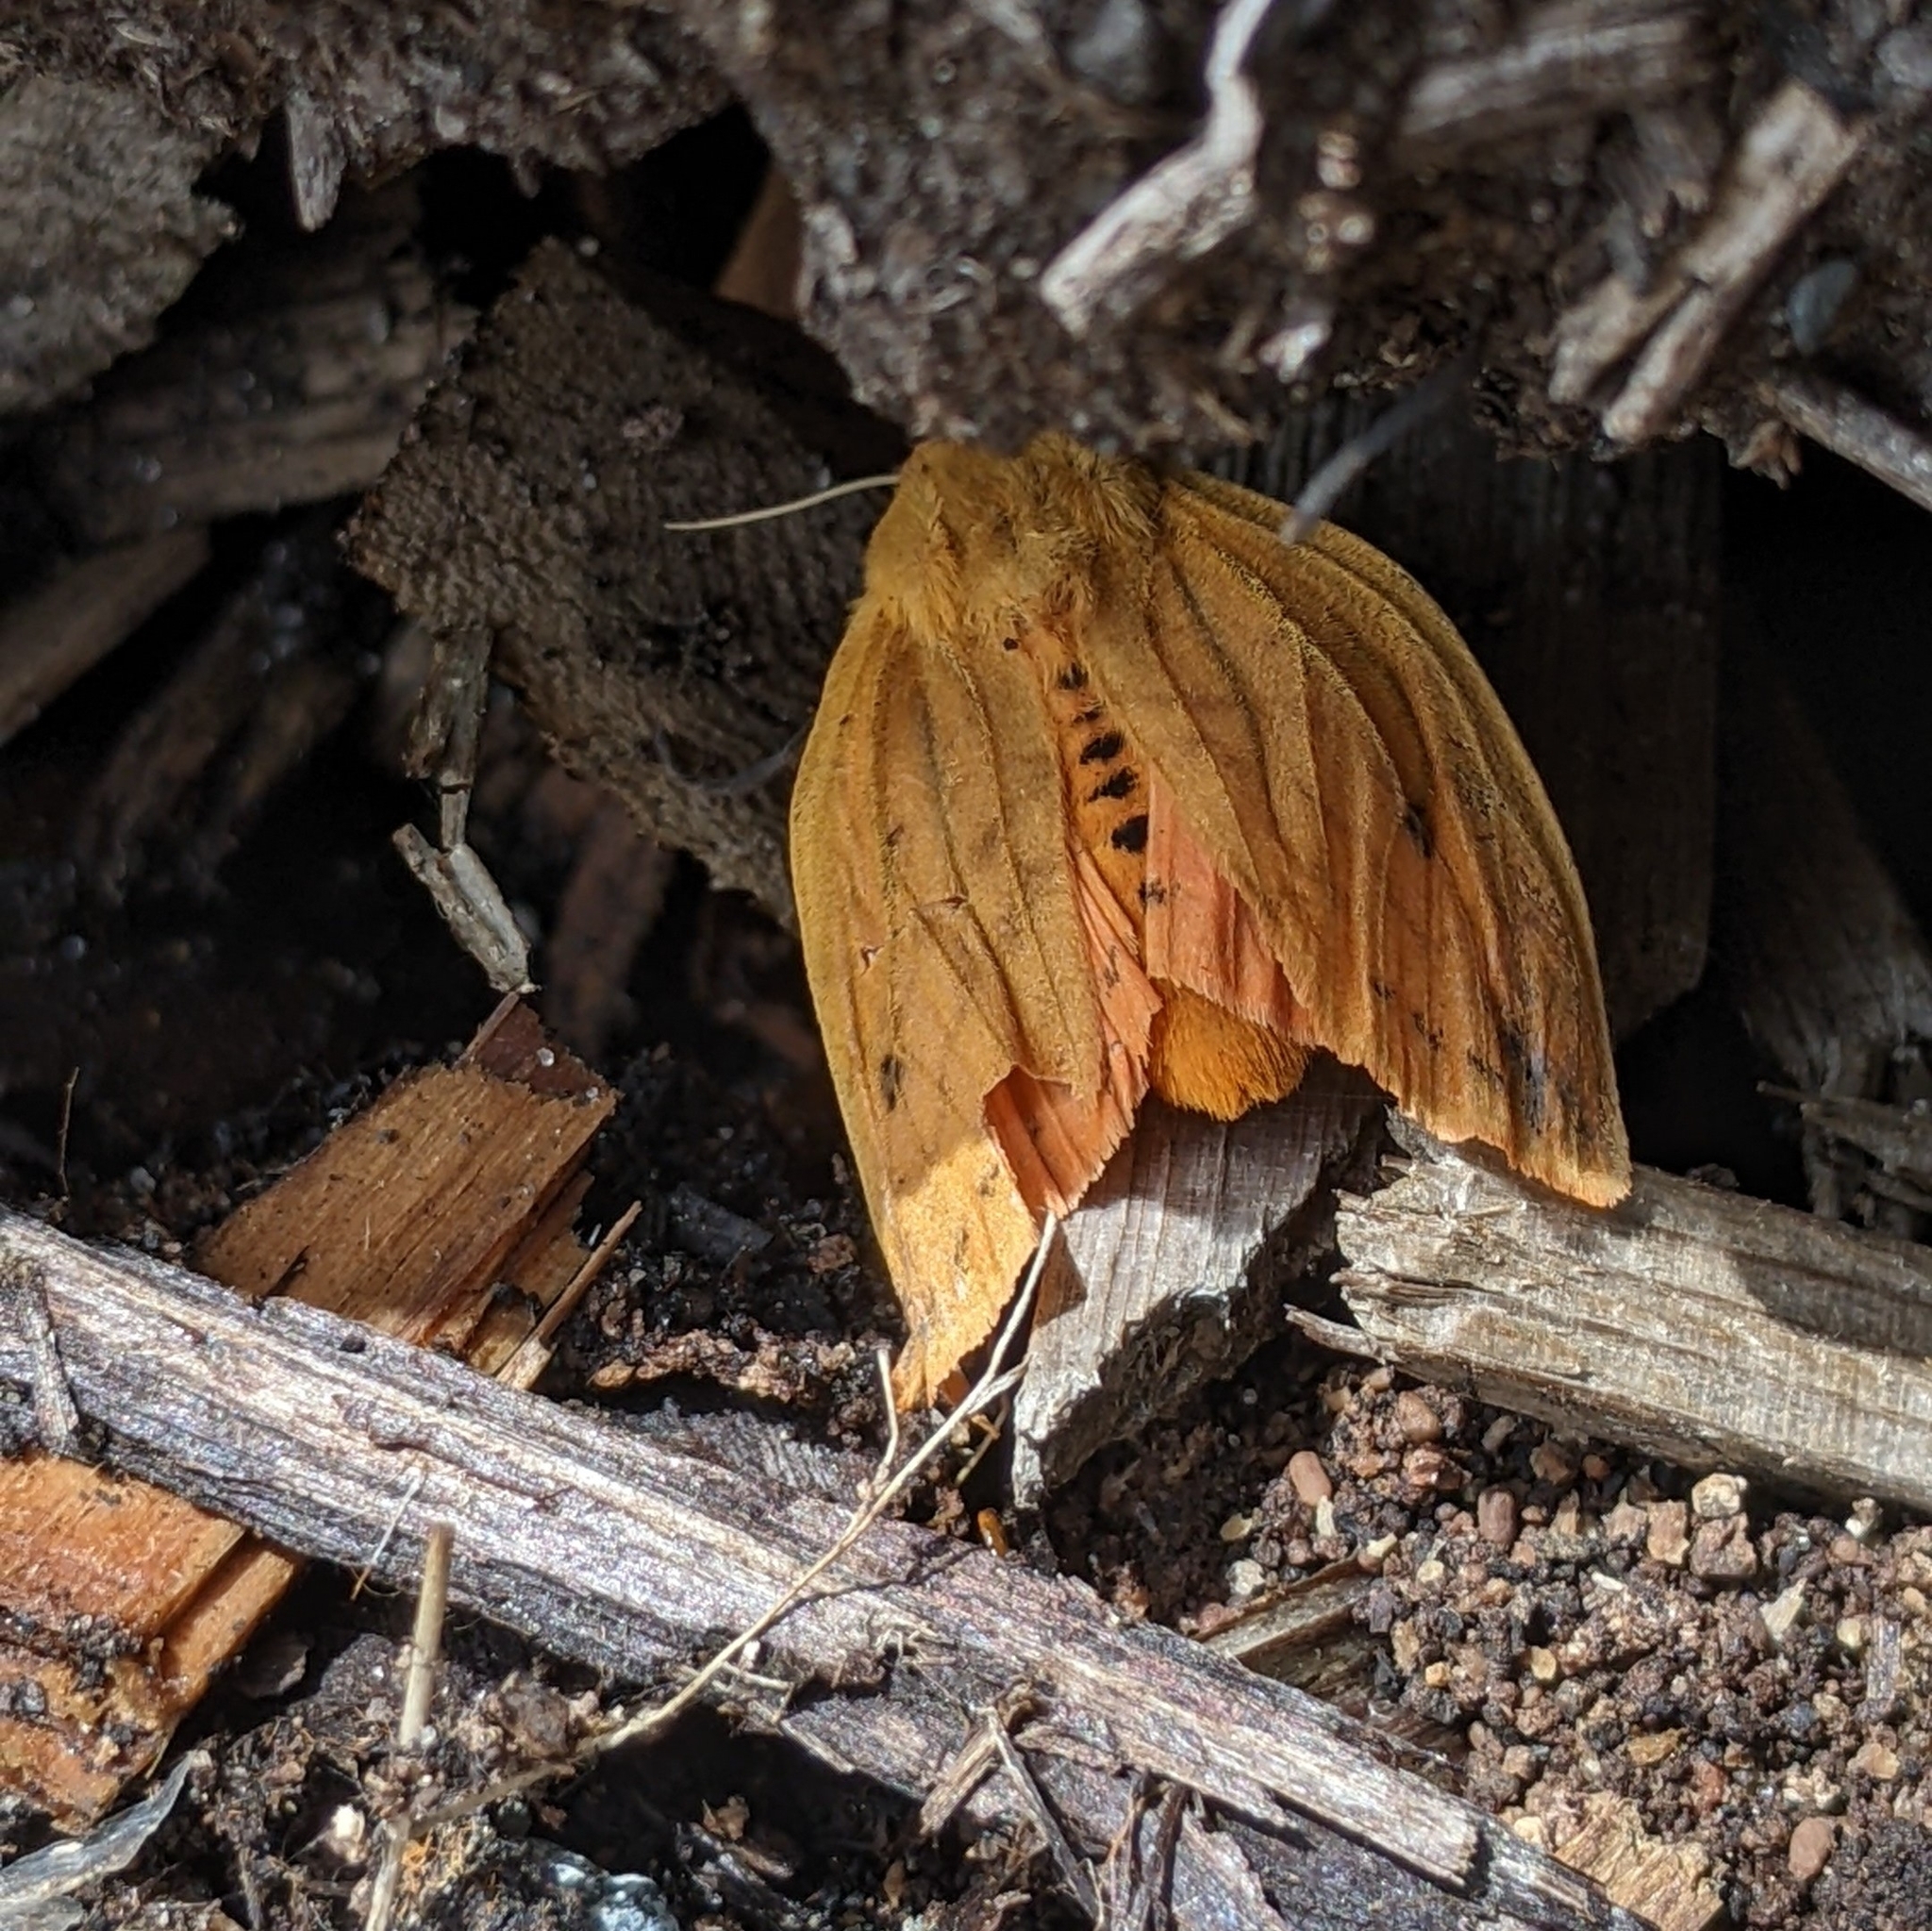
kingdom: Animalia
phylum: Arthropoda
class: Insecta
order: Lepidoptera
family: Erebidae
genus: Pyrrharctia
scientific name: Pyrrharctia isabella
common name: Isabella tiger moth
